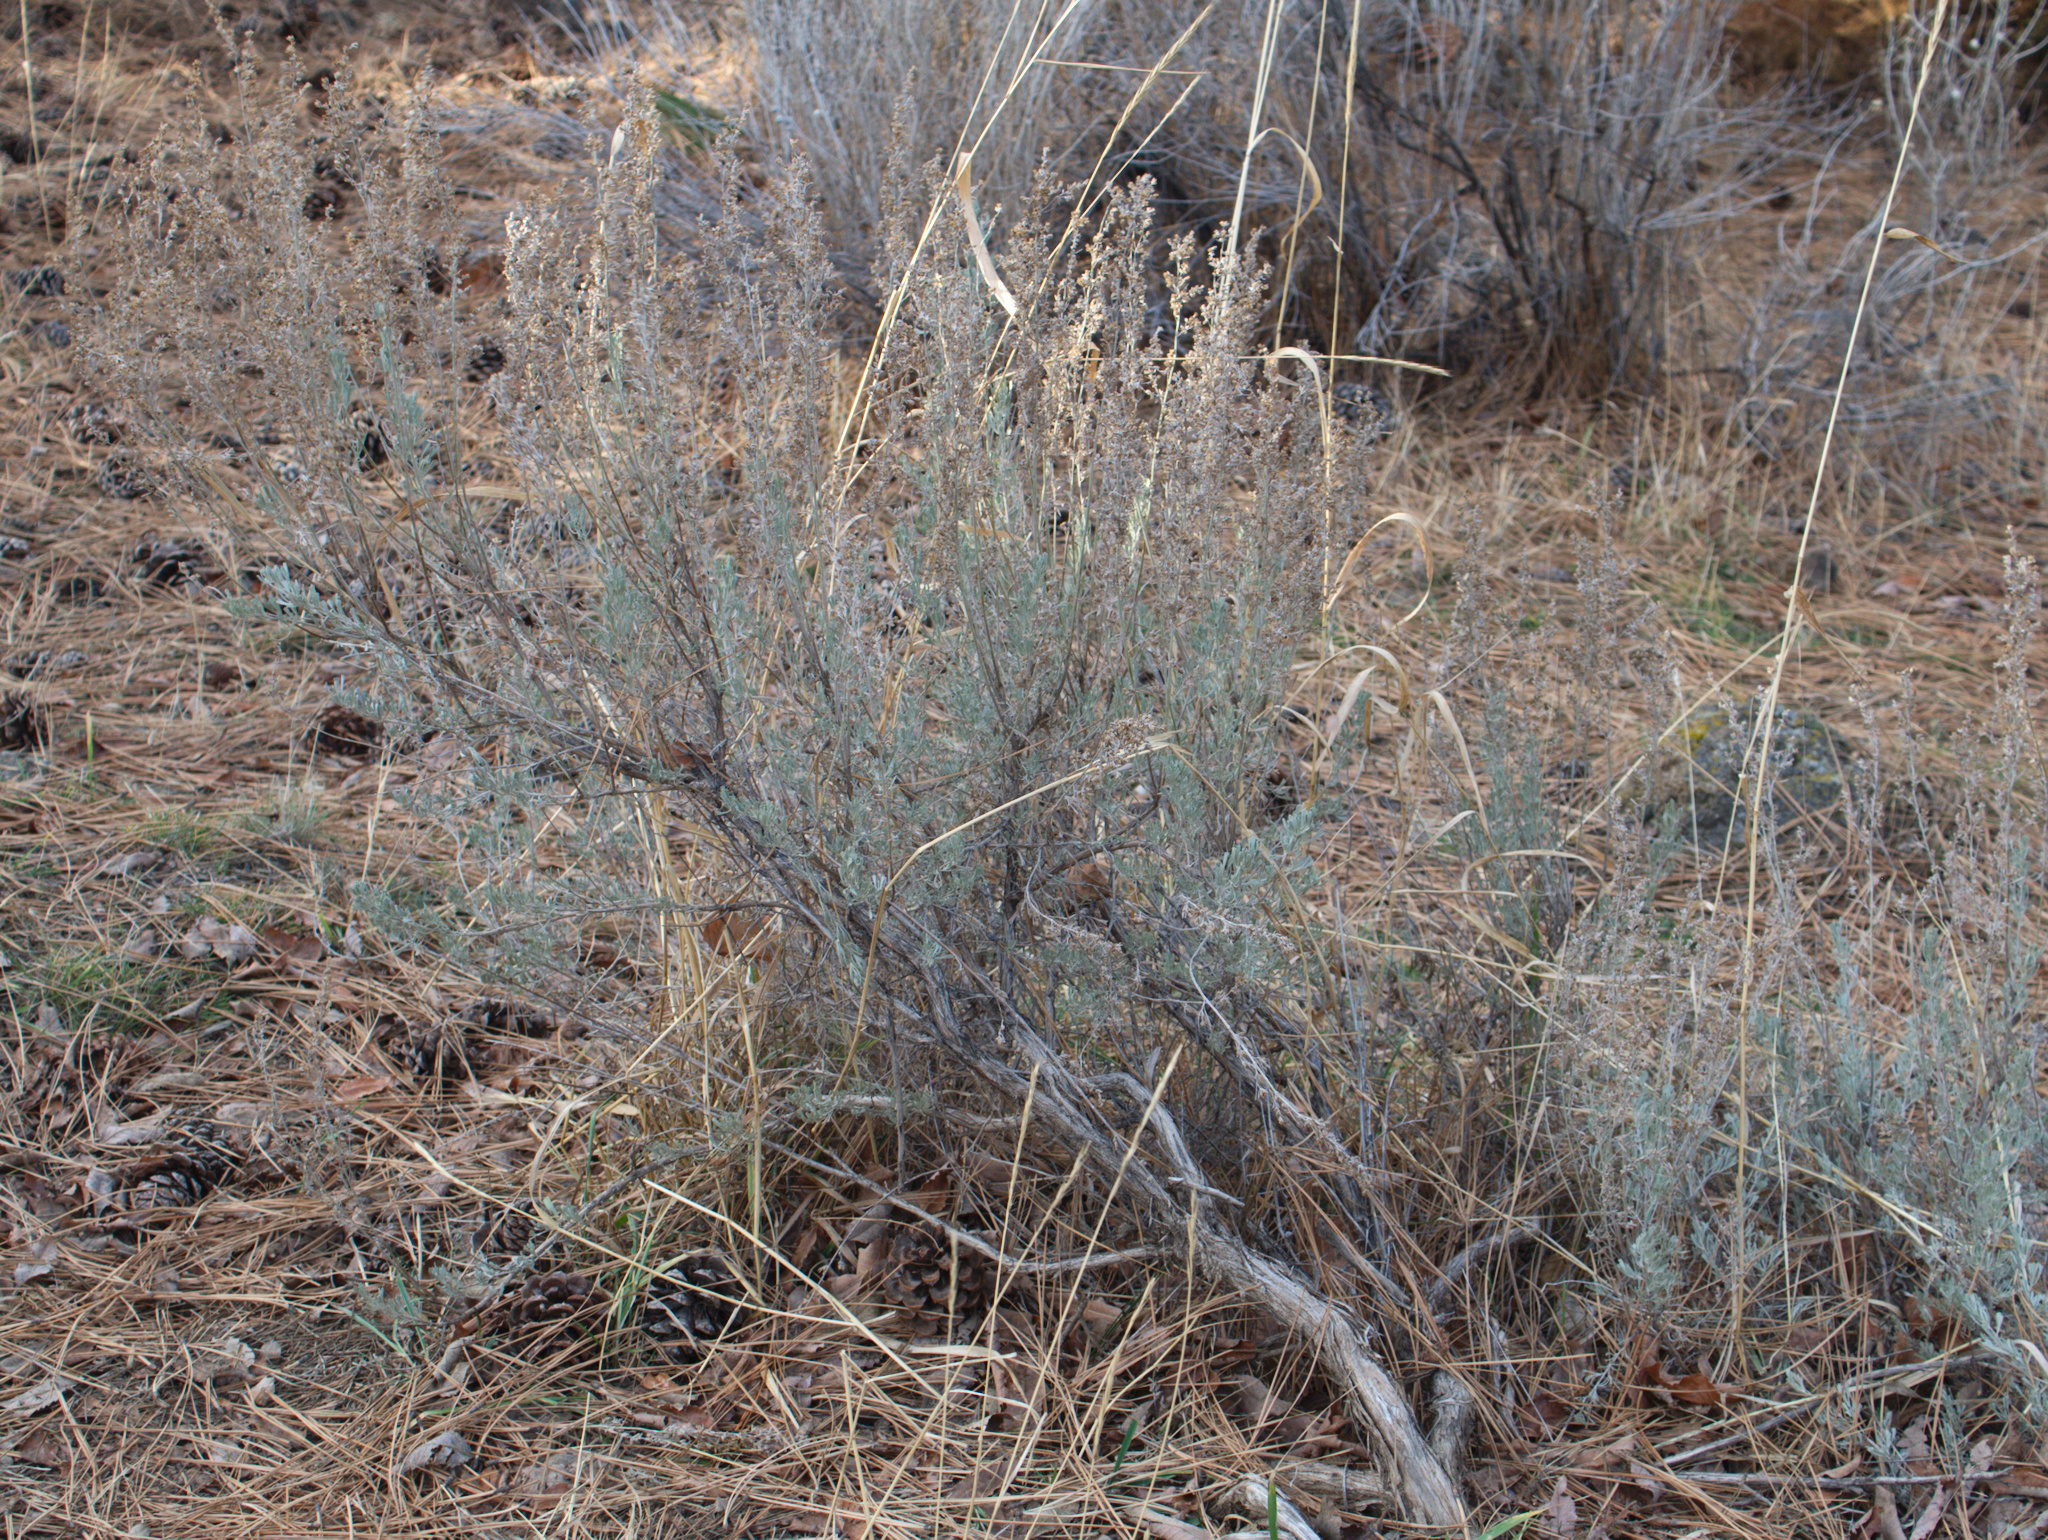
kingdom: Plantae
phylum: Tracheophyta
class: Magnoliopsida
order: Asterales
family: Asteraceae
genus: Artemisia
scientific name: Artemisia tridentata
